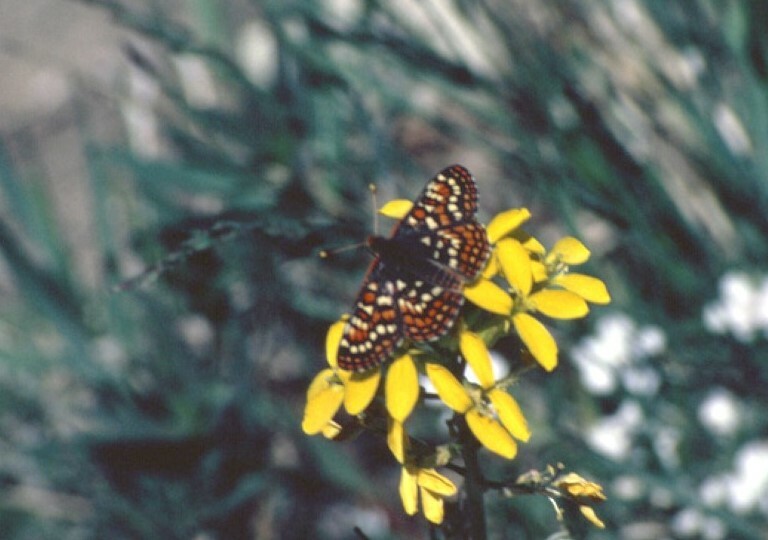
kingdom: Animalia
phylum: Arthropoda
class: Insecta
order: Lepidoptera
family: Nymphalidae
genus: Occidryas
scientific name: Occidryas editha
